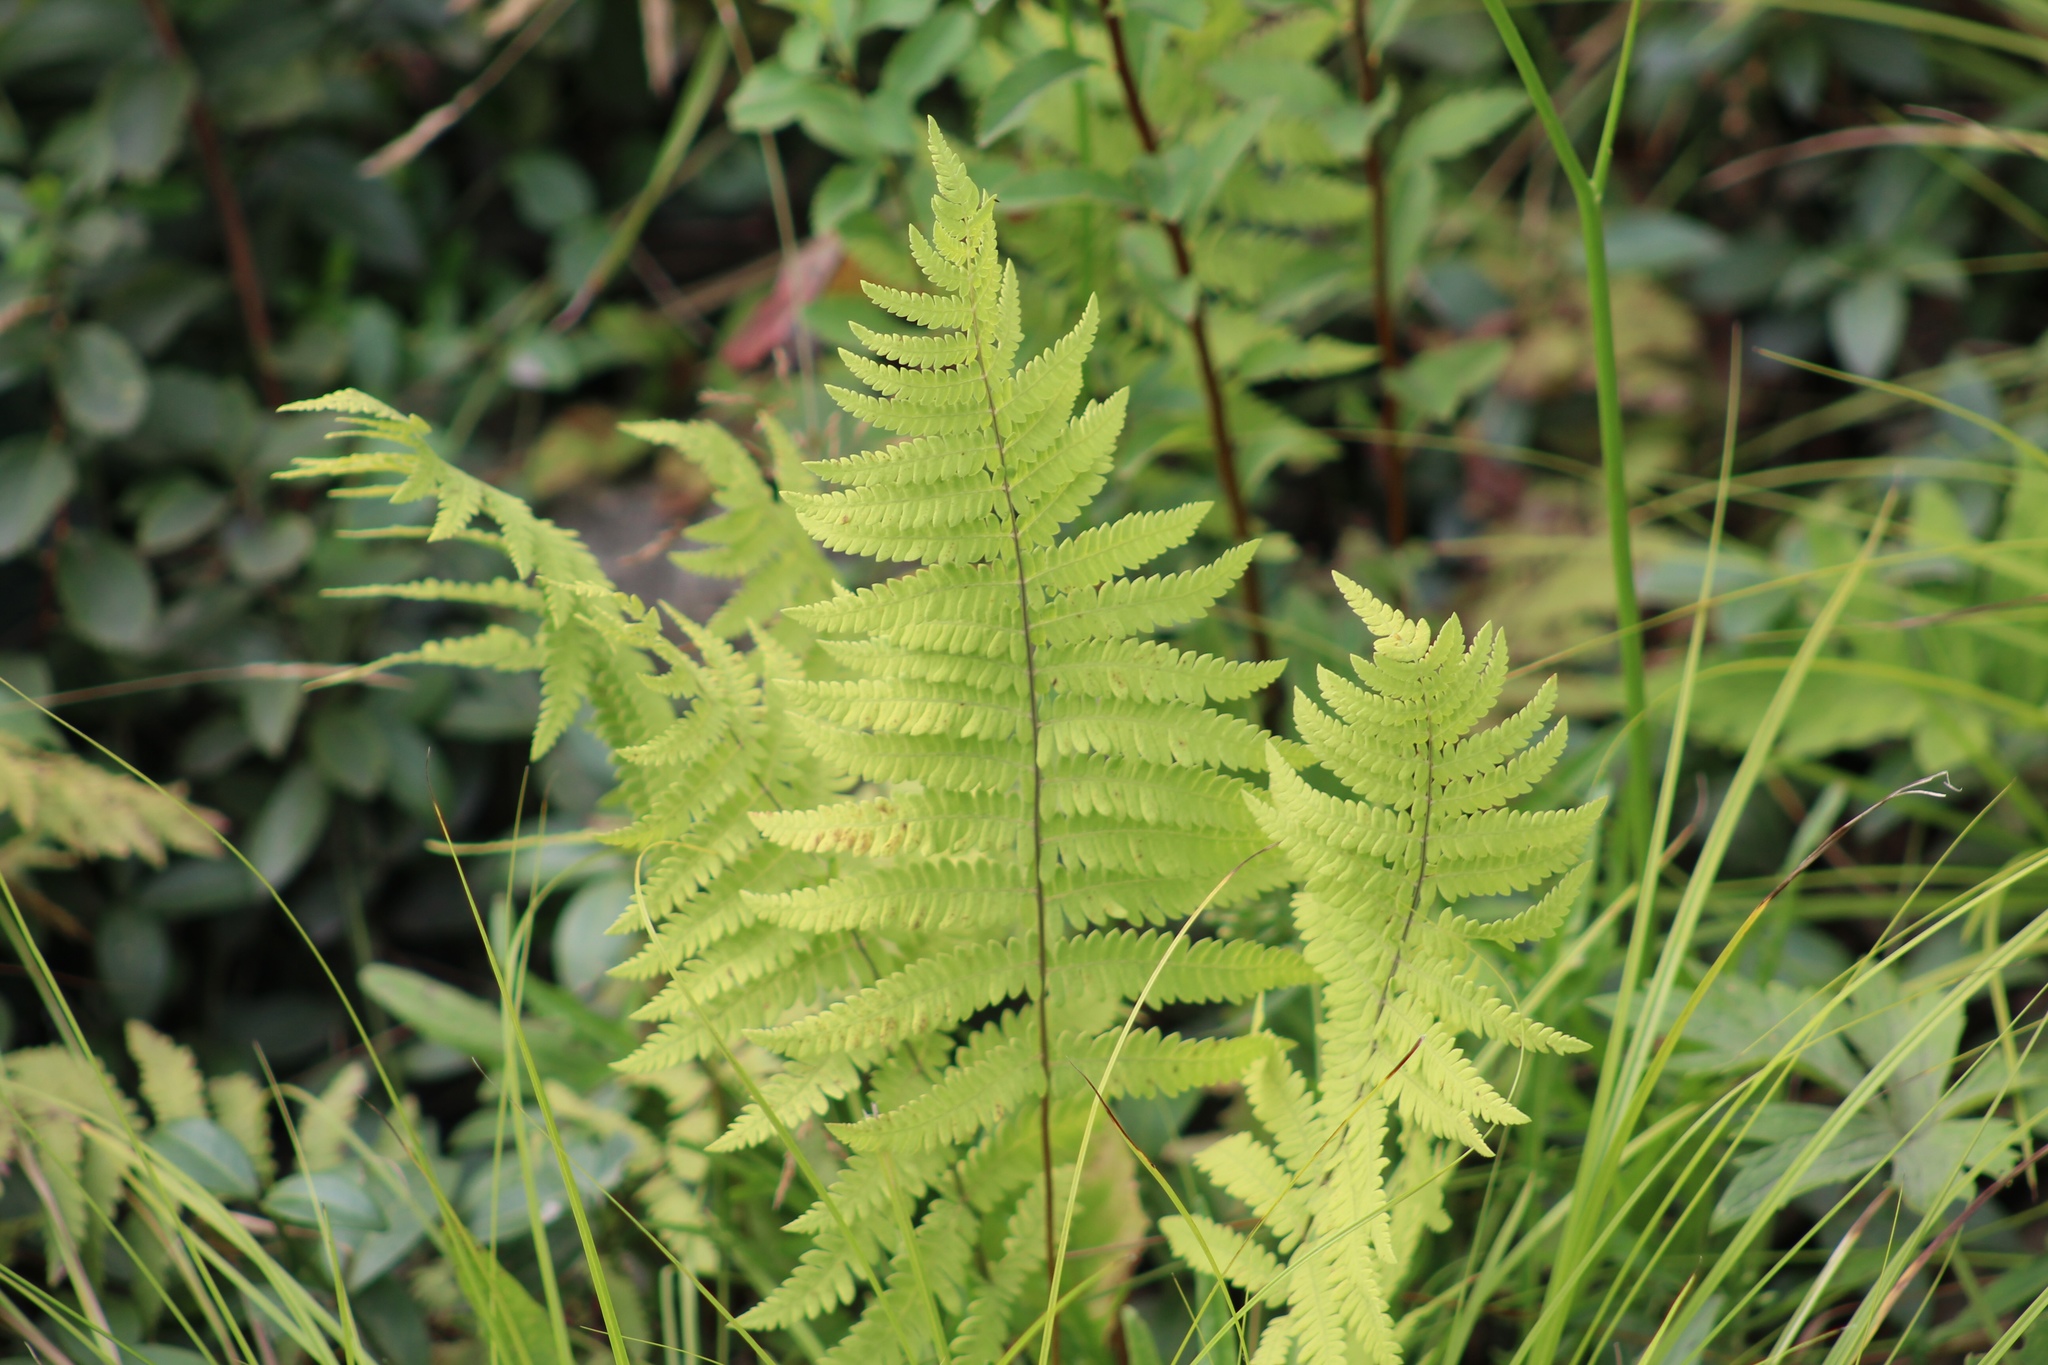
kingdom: Plantae
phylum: Tracheophyta
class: Polypodiopsida
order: Polypodiales
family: Thelypteridaceae
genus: Thelypteris
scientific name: Thelypteris palustris
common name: Marsh fern
